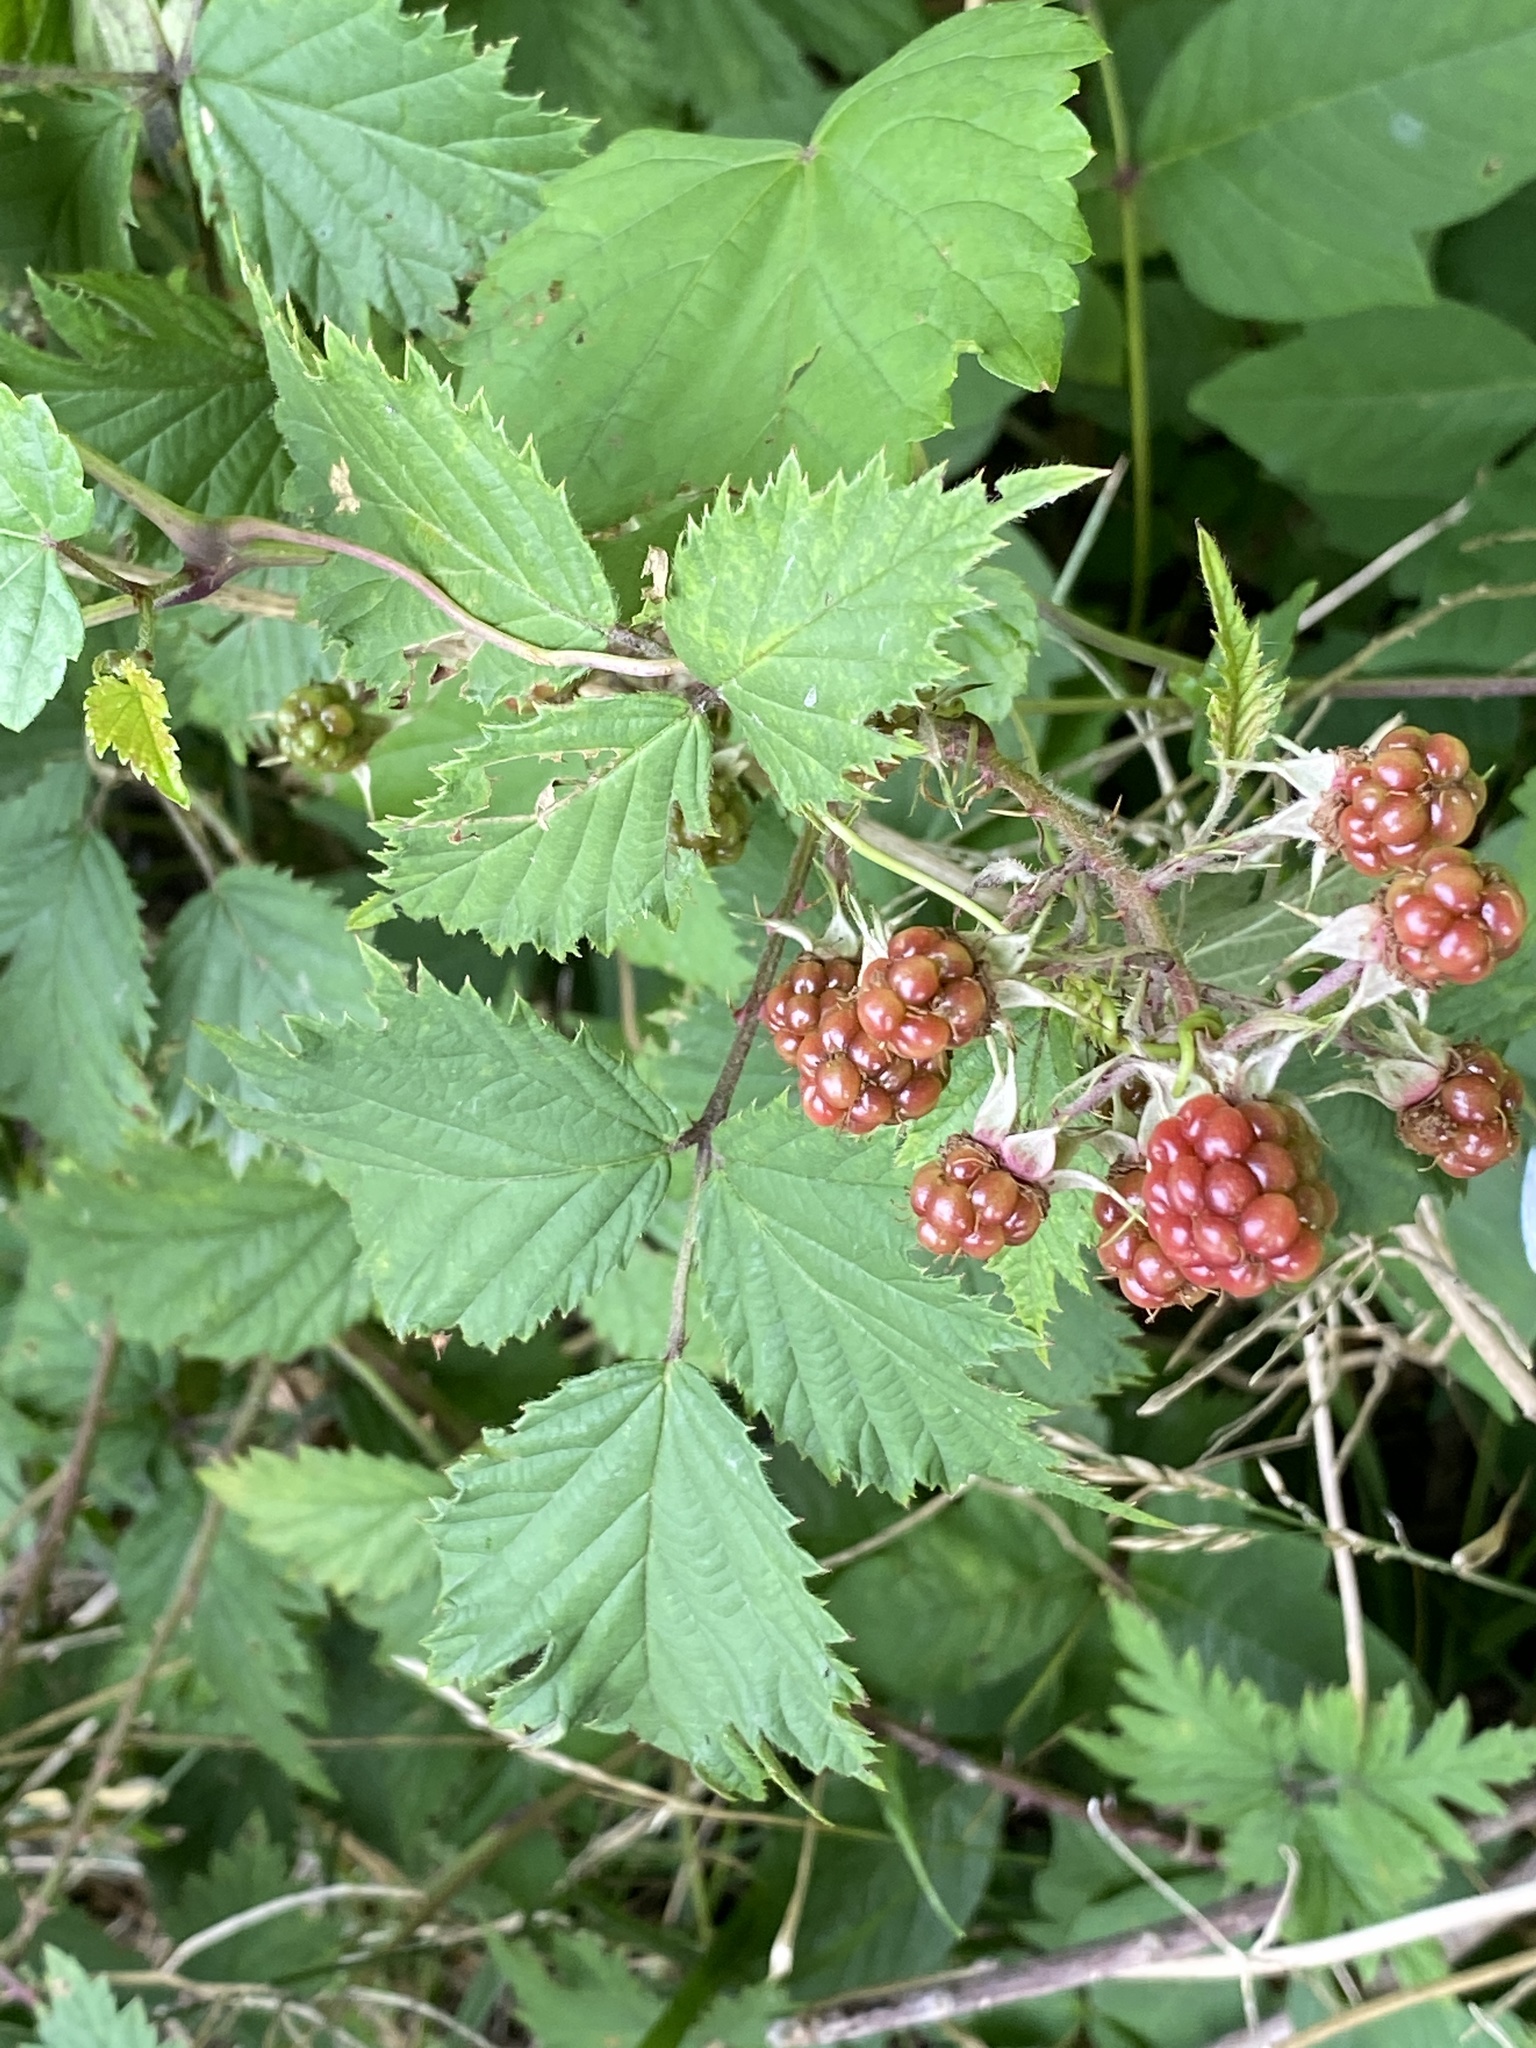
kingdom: Plantae
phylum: Tracheophyta
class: Magnoliopsida
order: Rosales
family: Rosaceae
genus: Rubus
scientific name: Rubus laciniatus
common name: Evergreen blackberry
